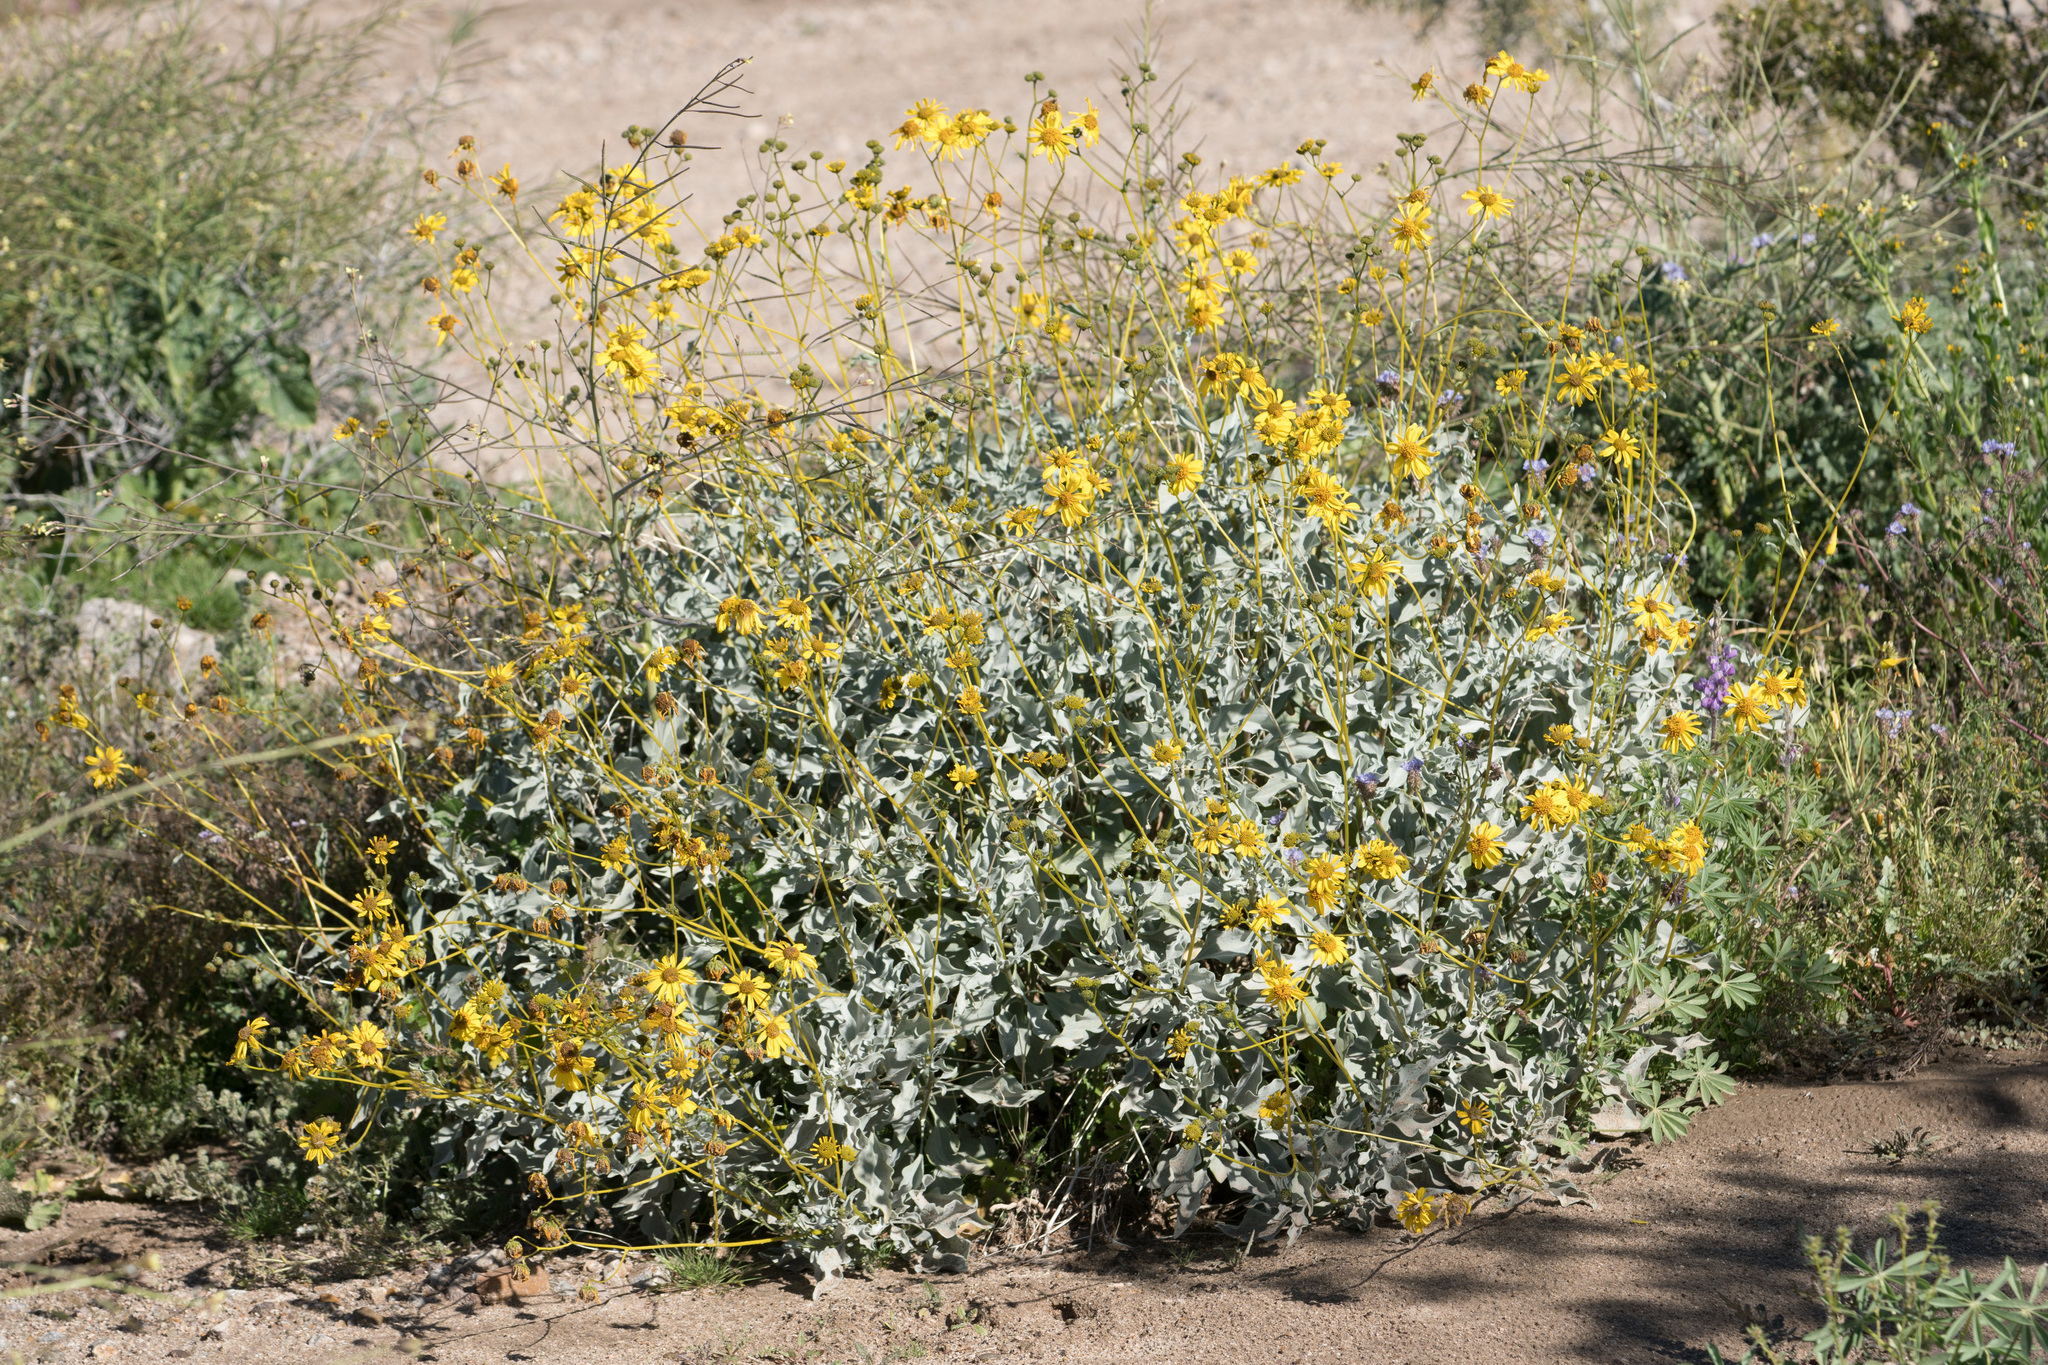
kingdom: Plantae
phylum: Tracheophyta
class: Magnoliopsida
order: Asterales
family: Asteraceae
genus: Encelia
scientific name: Encelia farinosa
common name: Brittlebush
